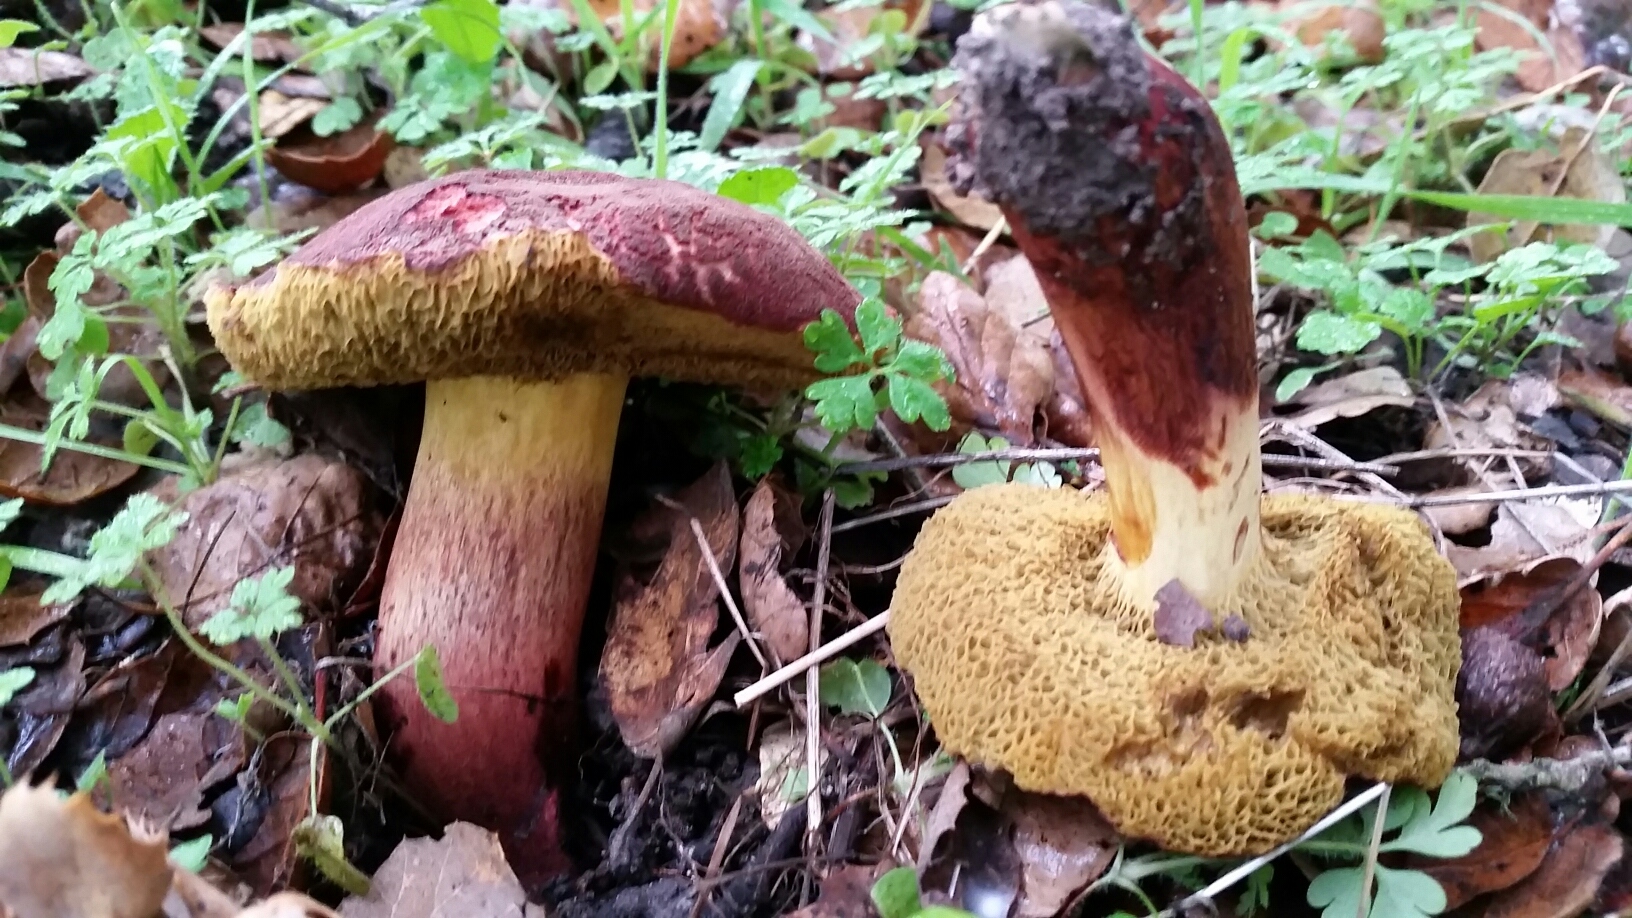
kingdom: Fungi
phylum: Basidiomycota
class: Agaricomycetes
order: Boletales
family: Boletaceae
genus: Xerocomellus
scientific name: Xerocomellus dryophilus
